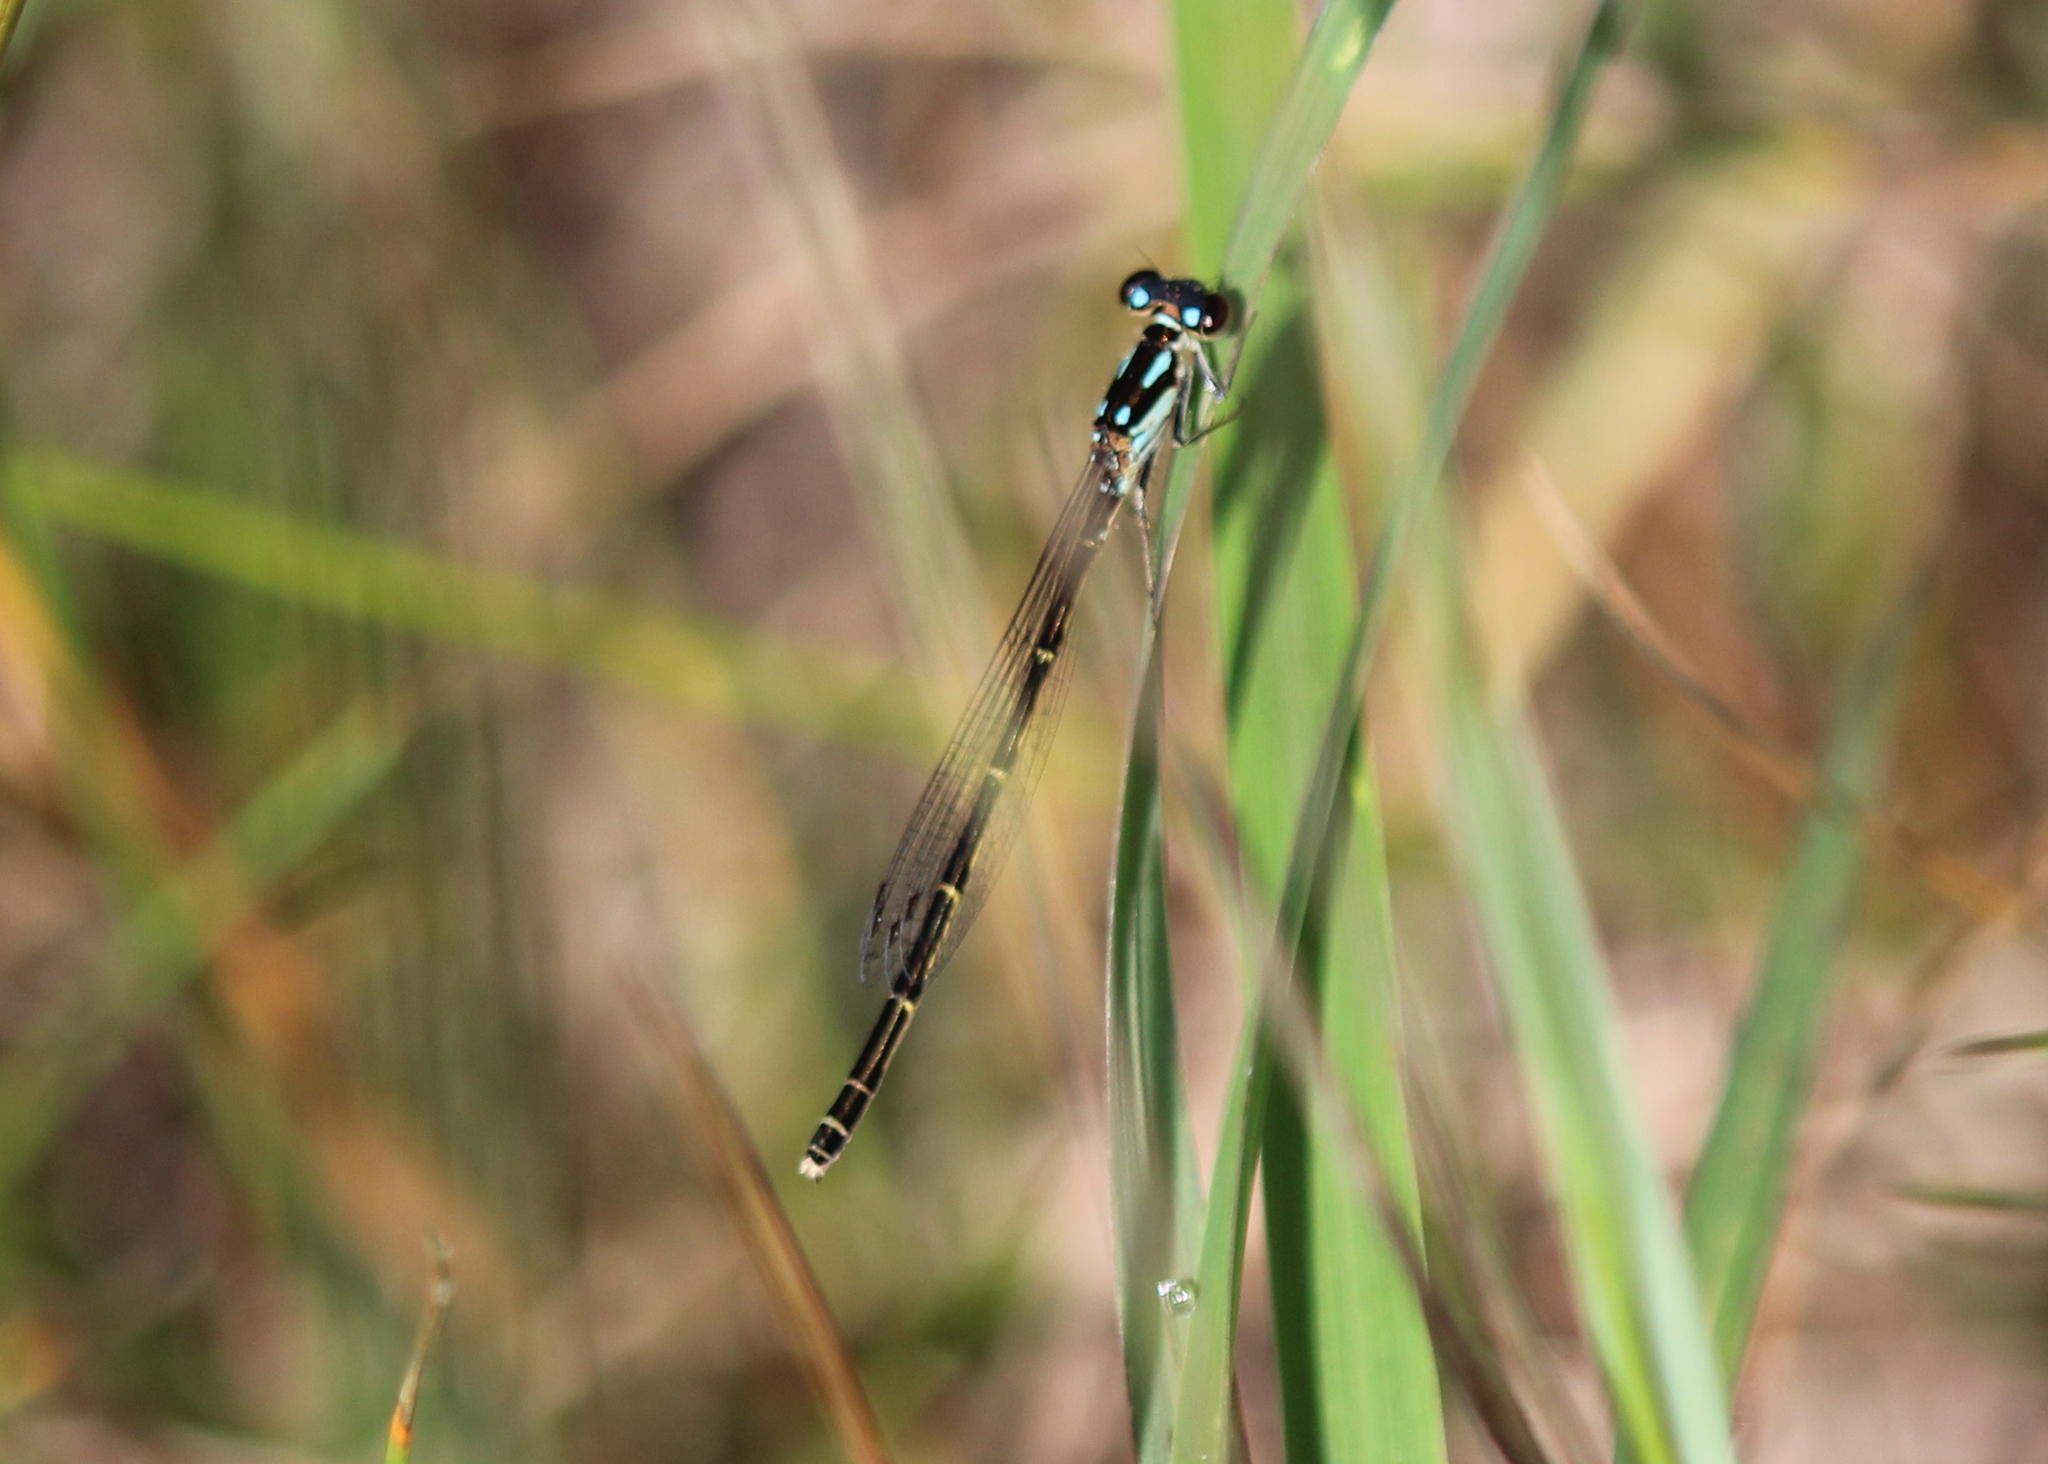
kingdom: Animalia
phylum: Arthropoda
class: Insecta
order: Odonata
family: Coenagrionidae
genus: Ischnura
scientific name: Ischnura posita
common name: Fragile forktail
